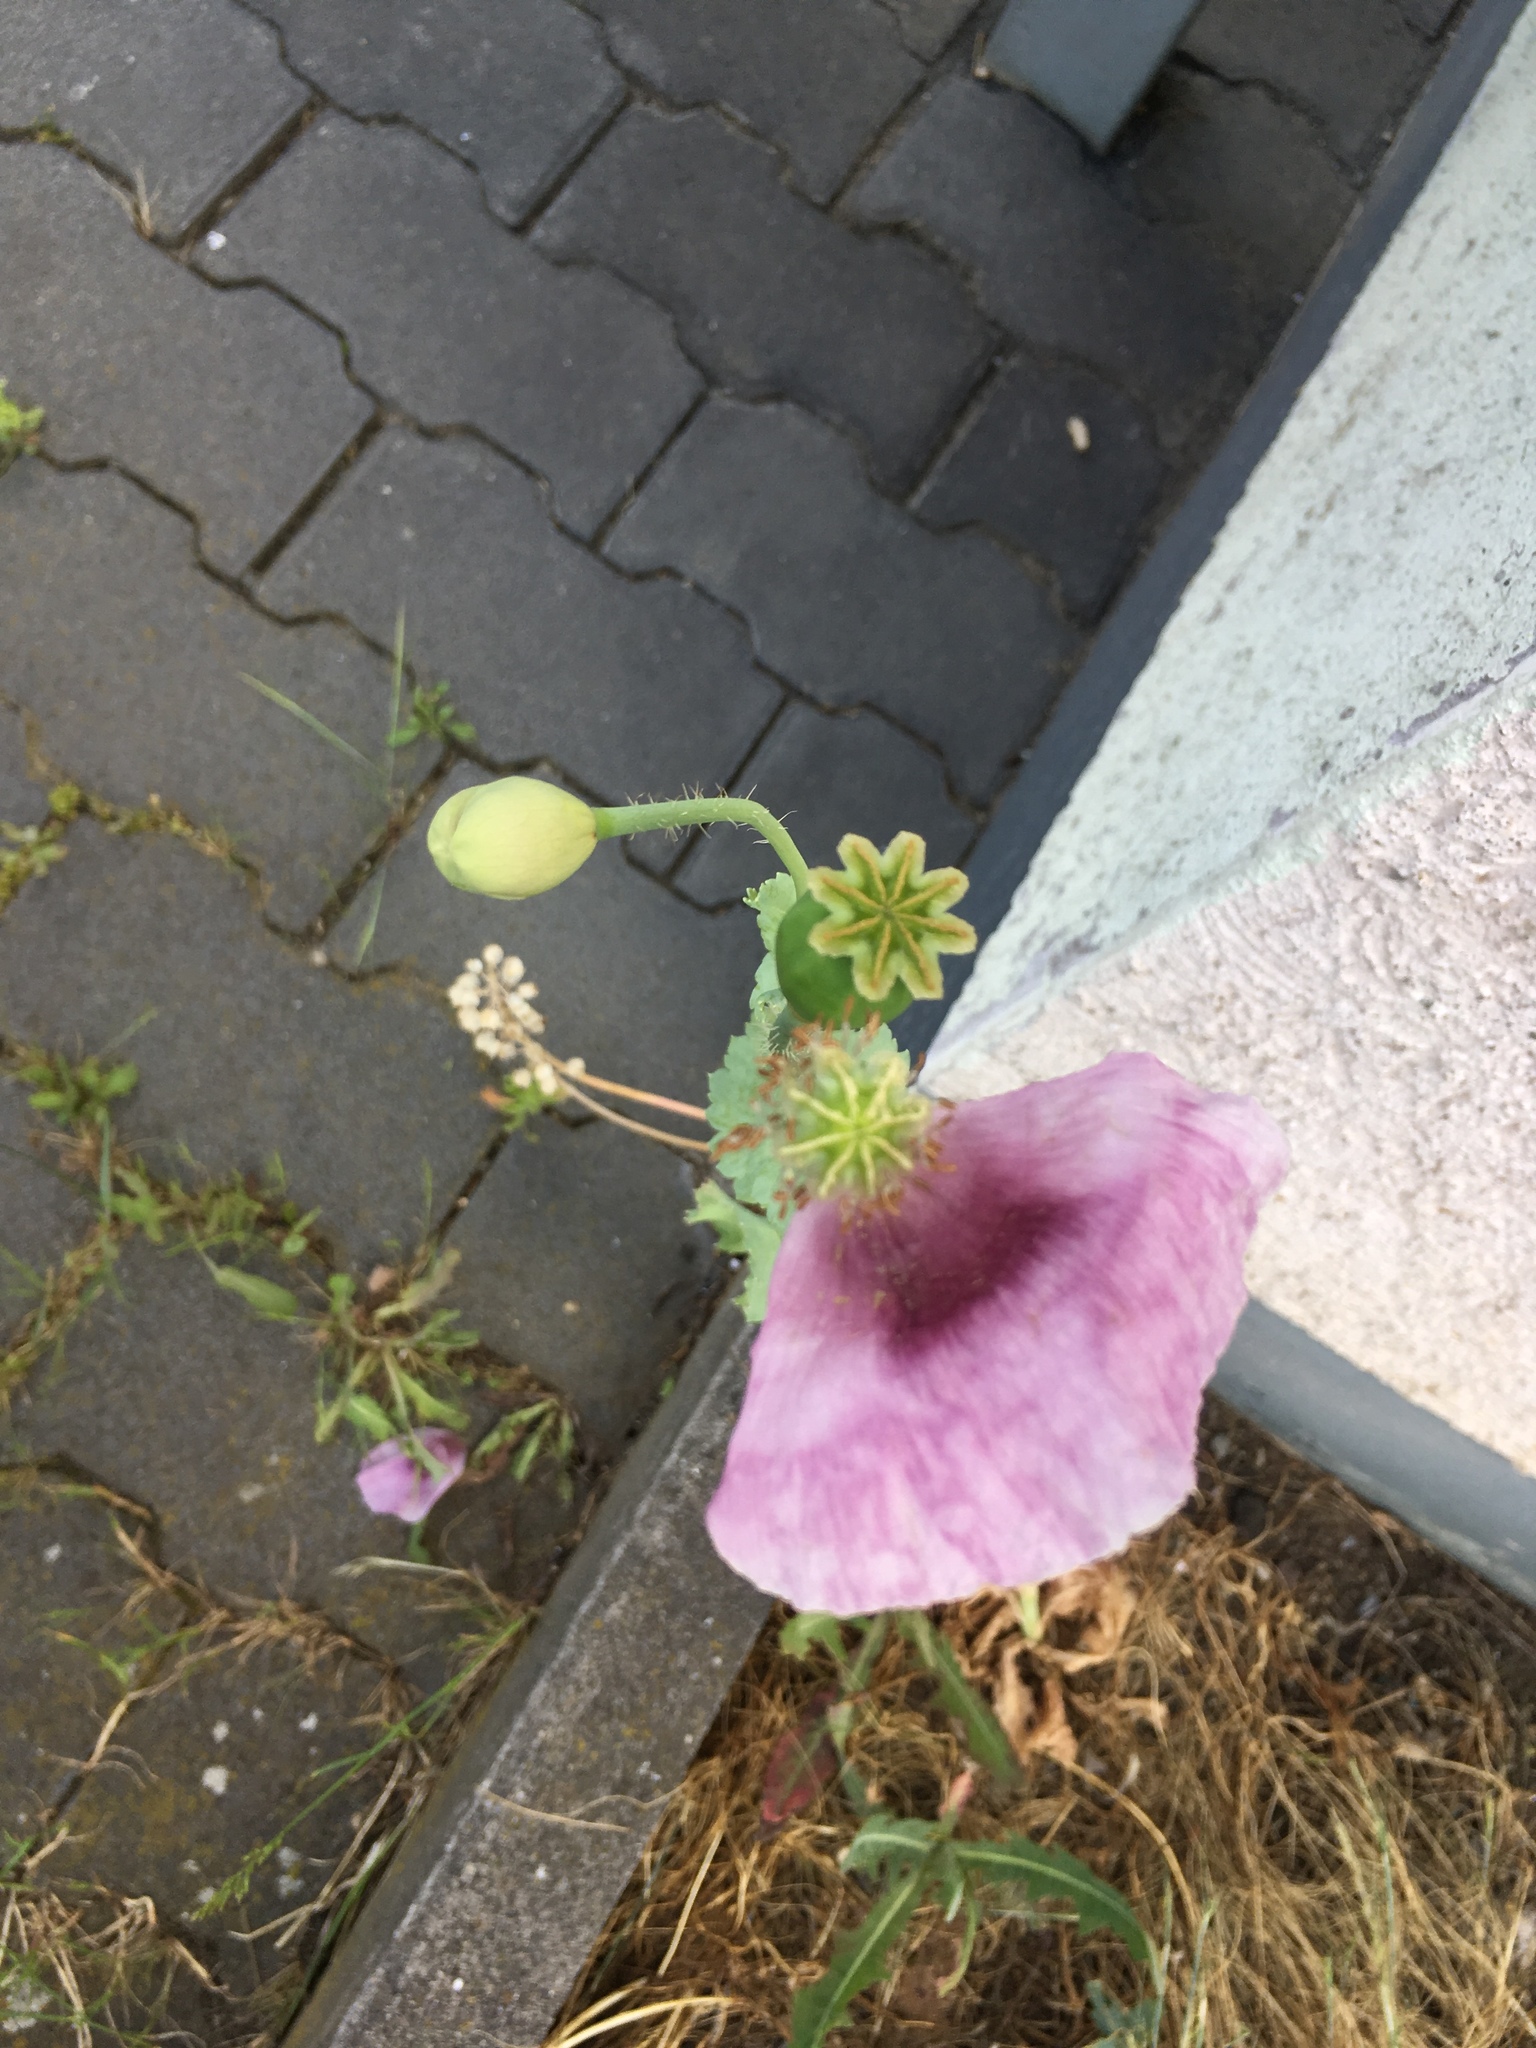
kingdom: Plantae
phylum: Tracheophyta
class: Magnoliopsida
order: Ranunculales
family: Papaveraceae
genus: Papaver
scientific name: Papaver somniferum
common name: Opium poppy
